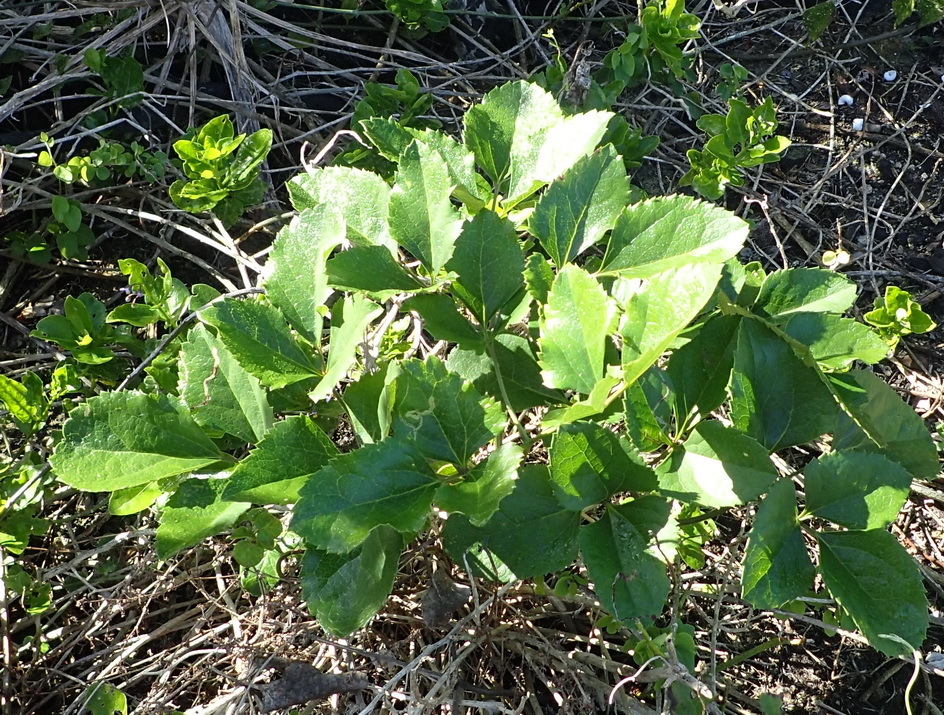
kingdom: Plantae
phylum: Tracheophyta
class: Magnoliopsida
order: Ranunculales
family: Ranunculaceae
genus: Knowltonia
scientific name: Knowltonia vesicatoria
